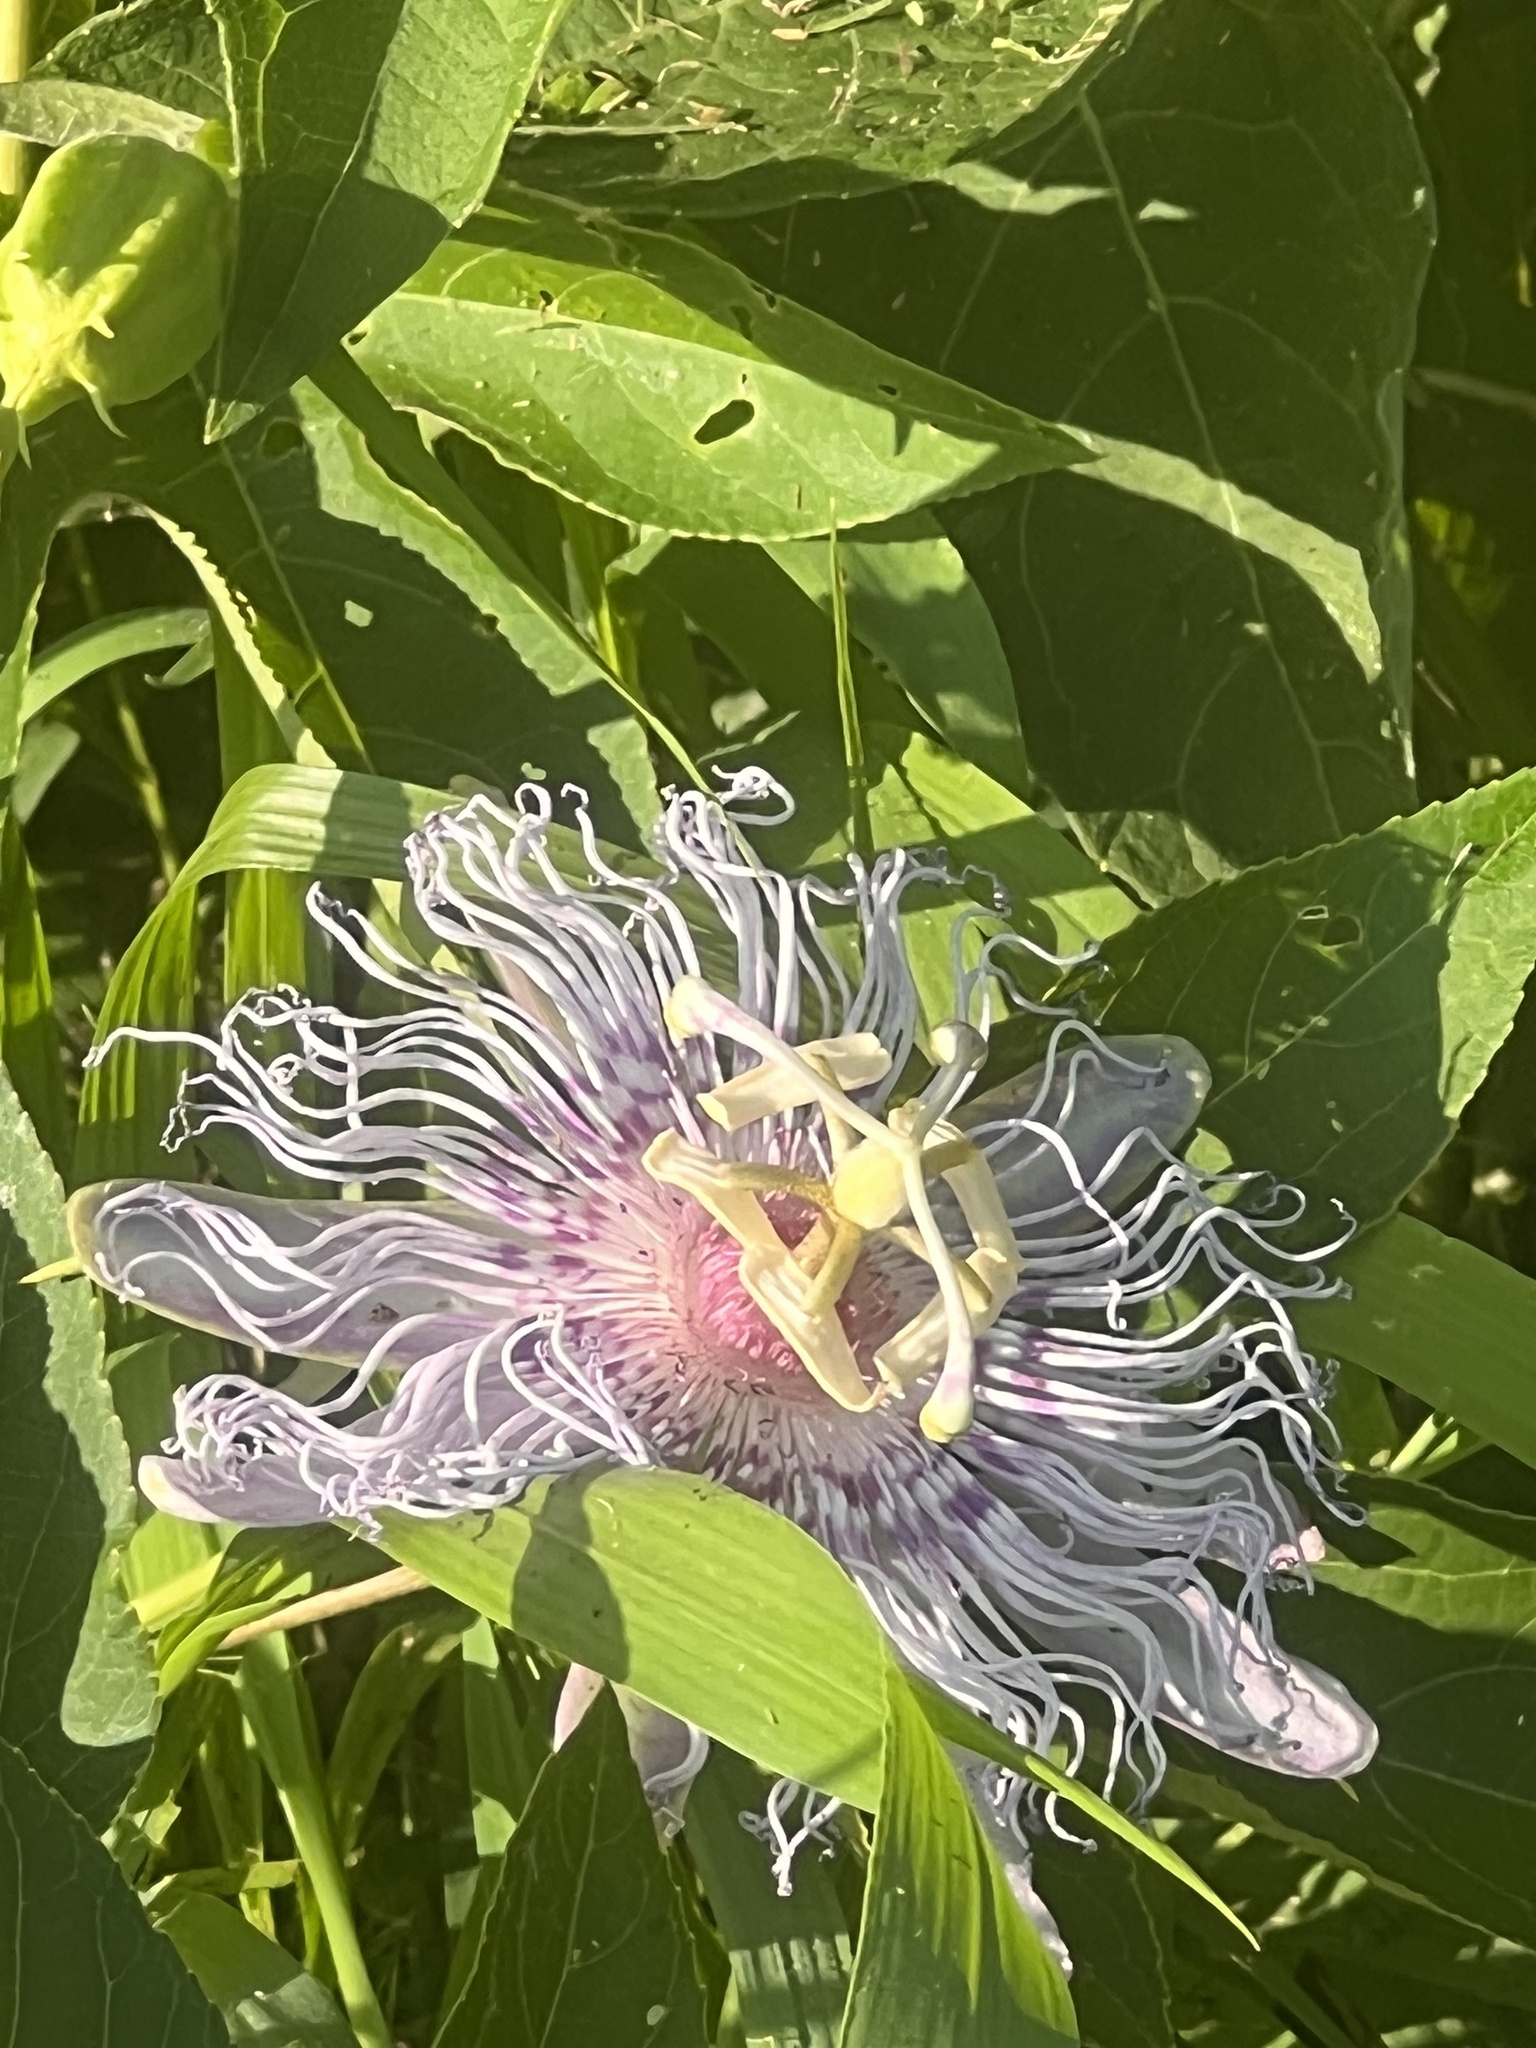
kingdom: Plantae
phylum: Tracheophyta
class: Magnoliopsida
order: Malpighiales
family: Passifloraceae
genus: Passiflora
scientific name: Passiflora incarnata
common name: Apricot-vine
